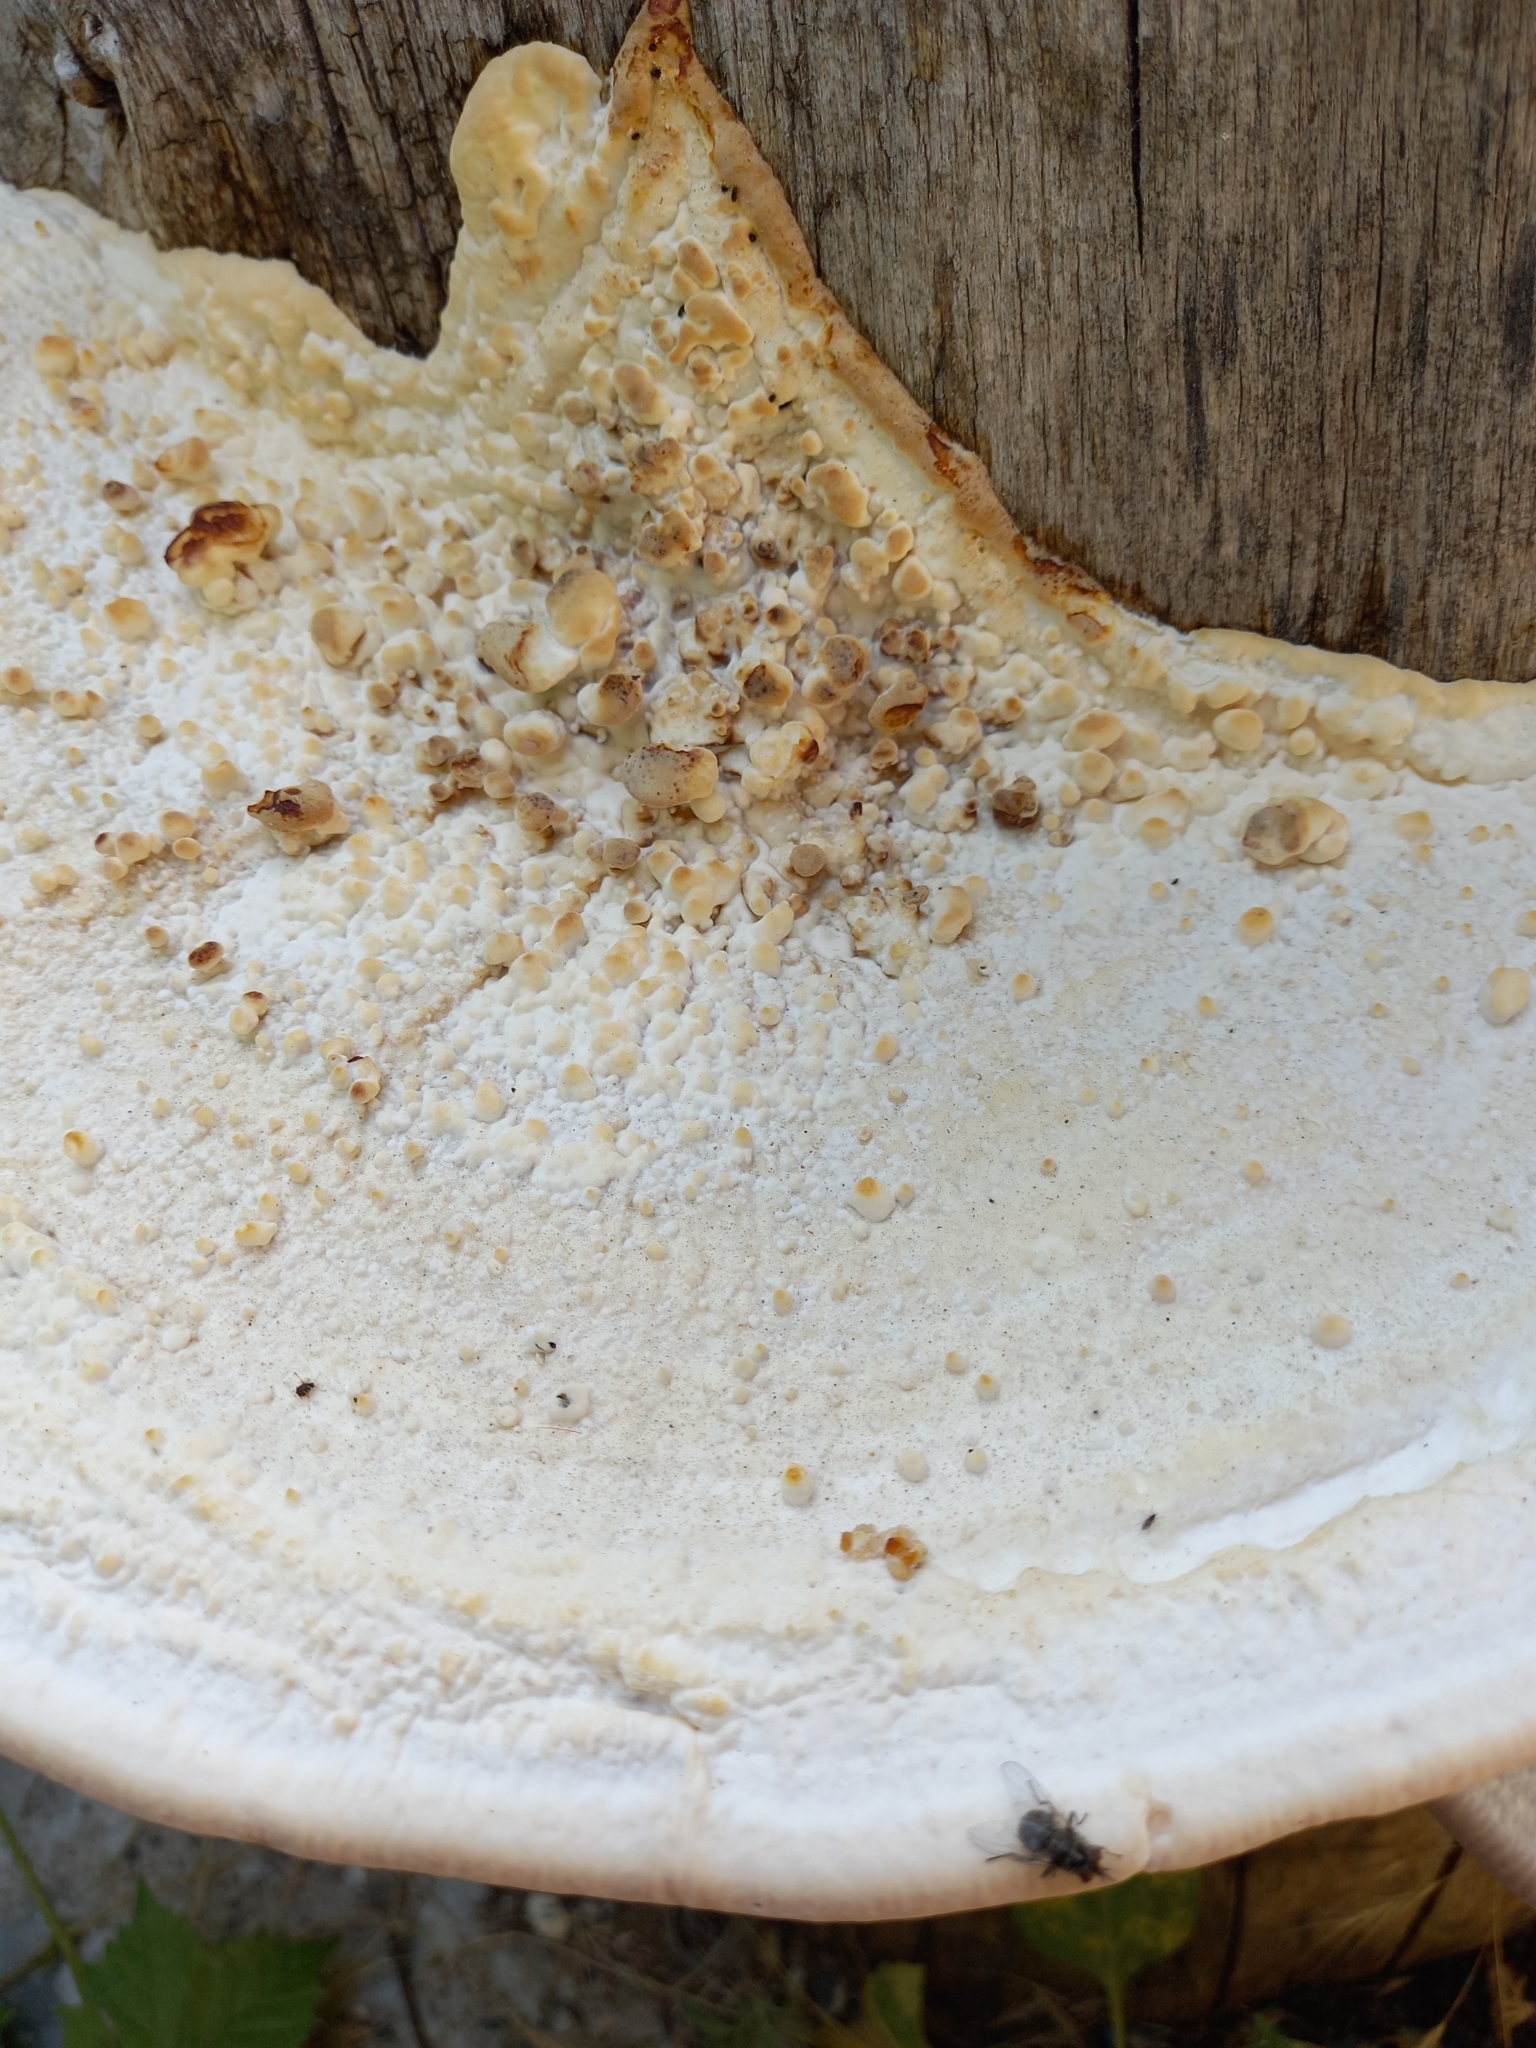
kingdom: Fungi
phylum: Basidiomycota
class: Agaricomycetes
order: Polyporales
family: Polyporaceae
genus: Cellulariella
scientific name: Cellulariella warnieri
